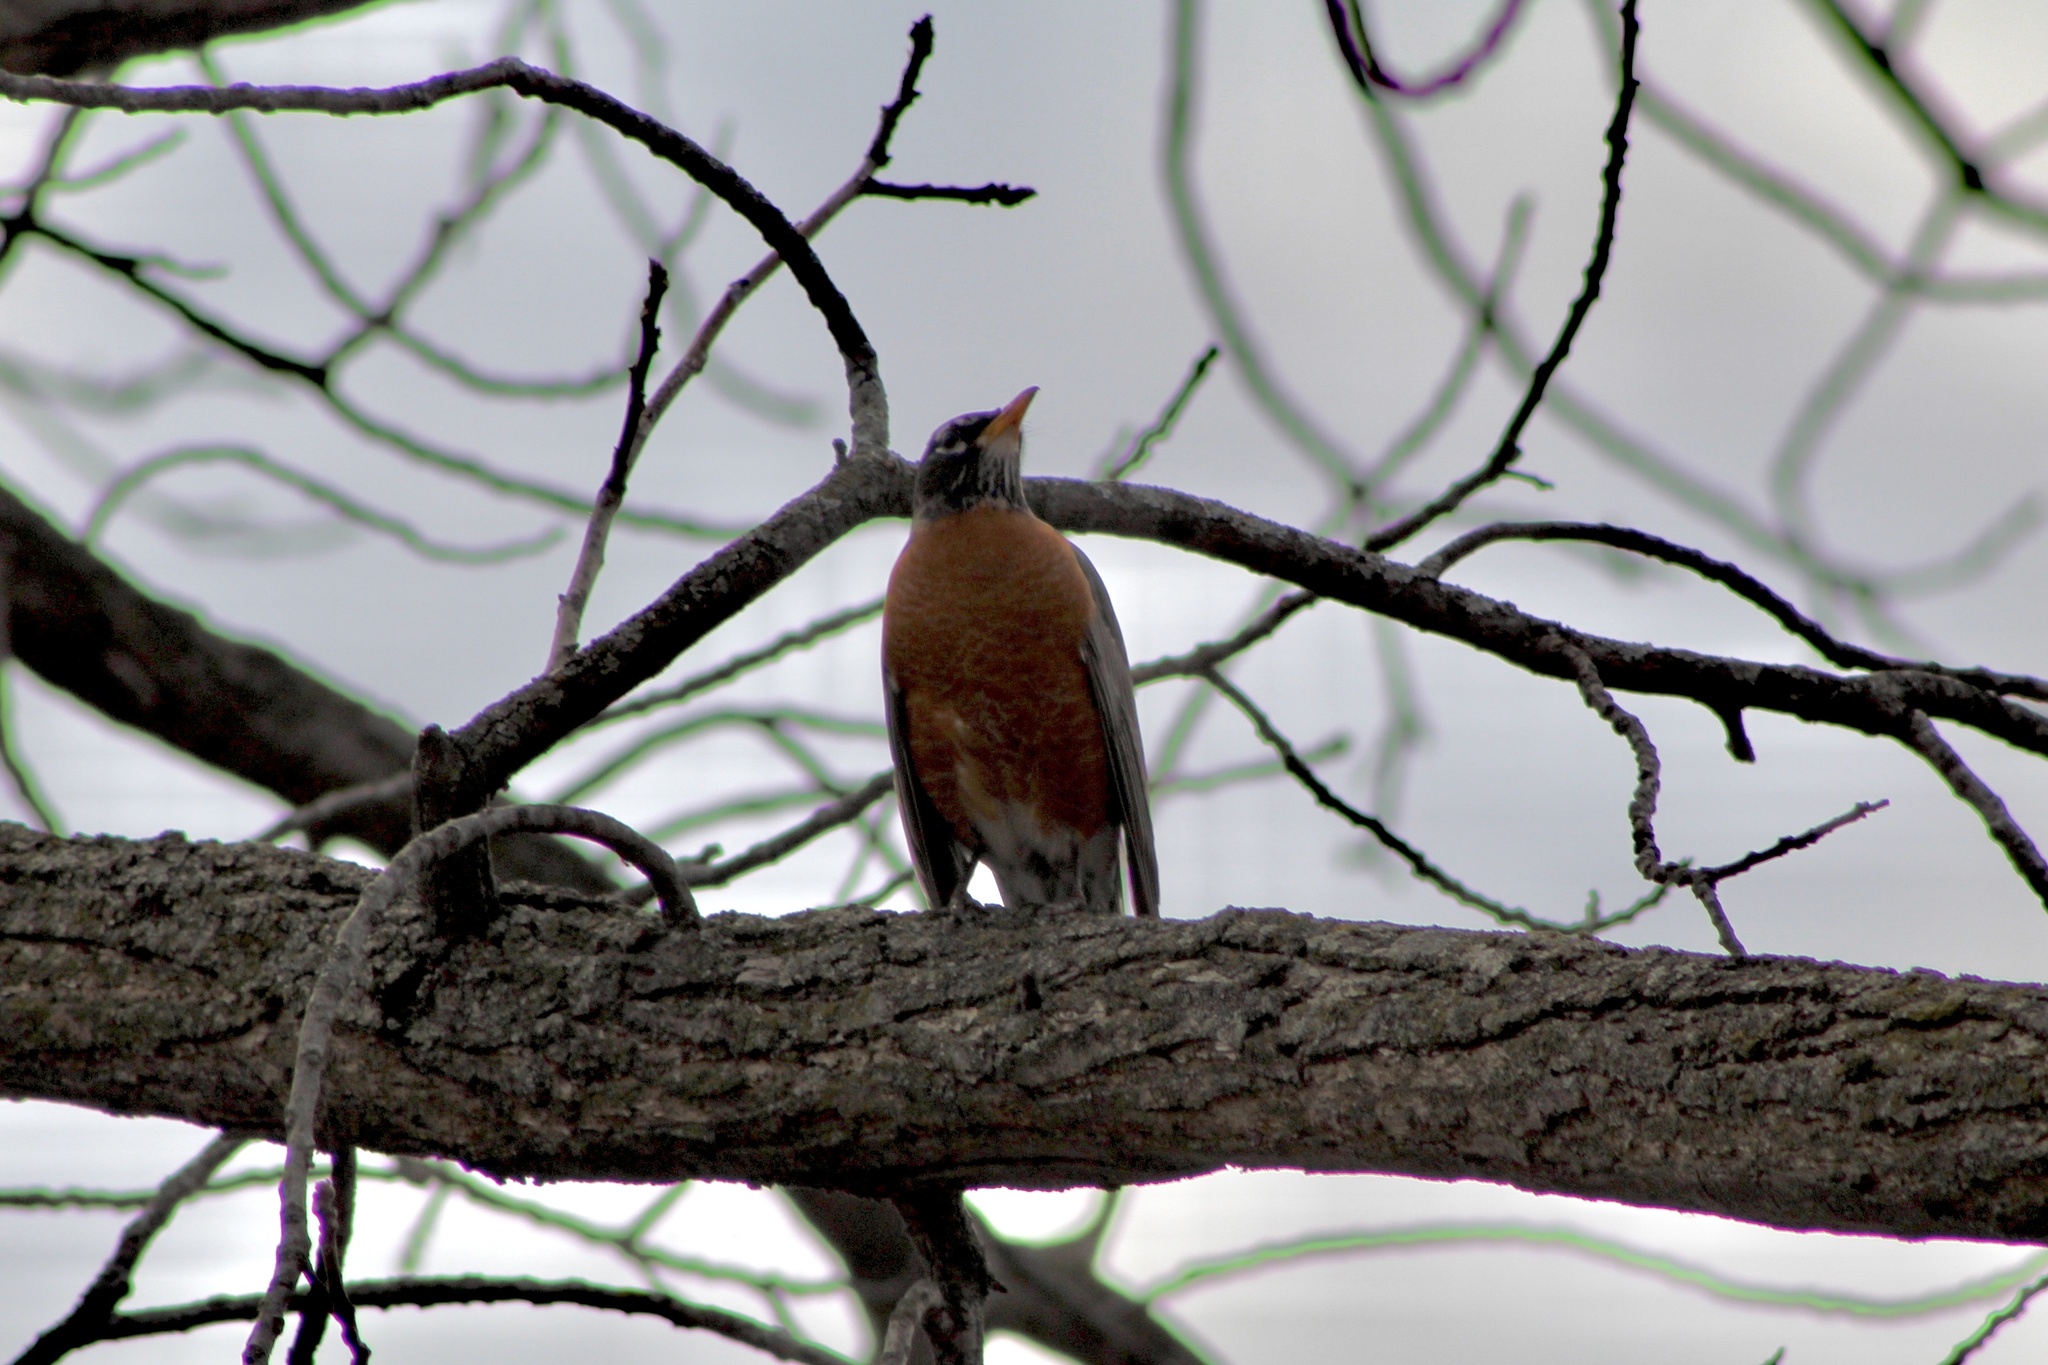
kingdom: Animalia
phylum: Chordata
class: Aves
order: Passeriformes
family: Turdidae
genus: Turdus
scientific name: Turdus migratorius
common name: American robin
